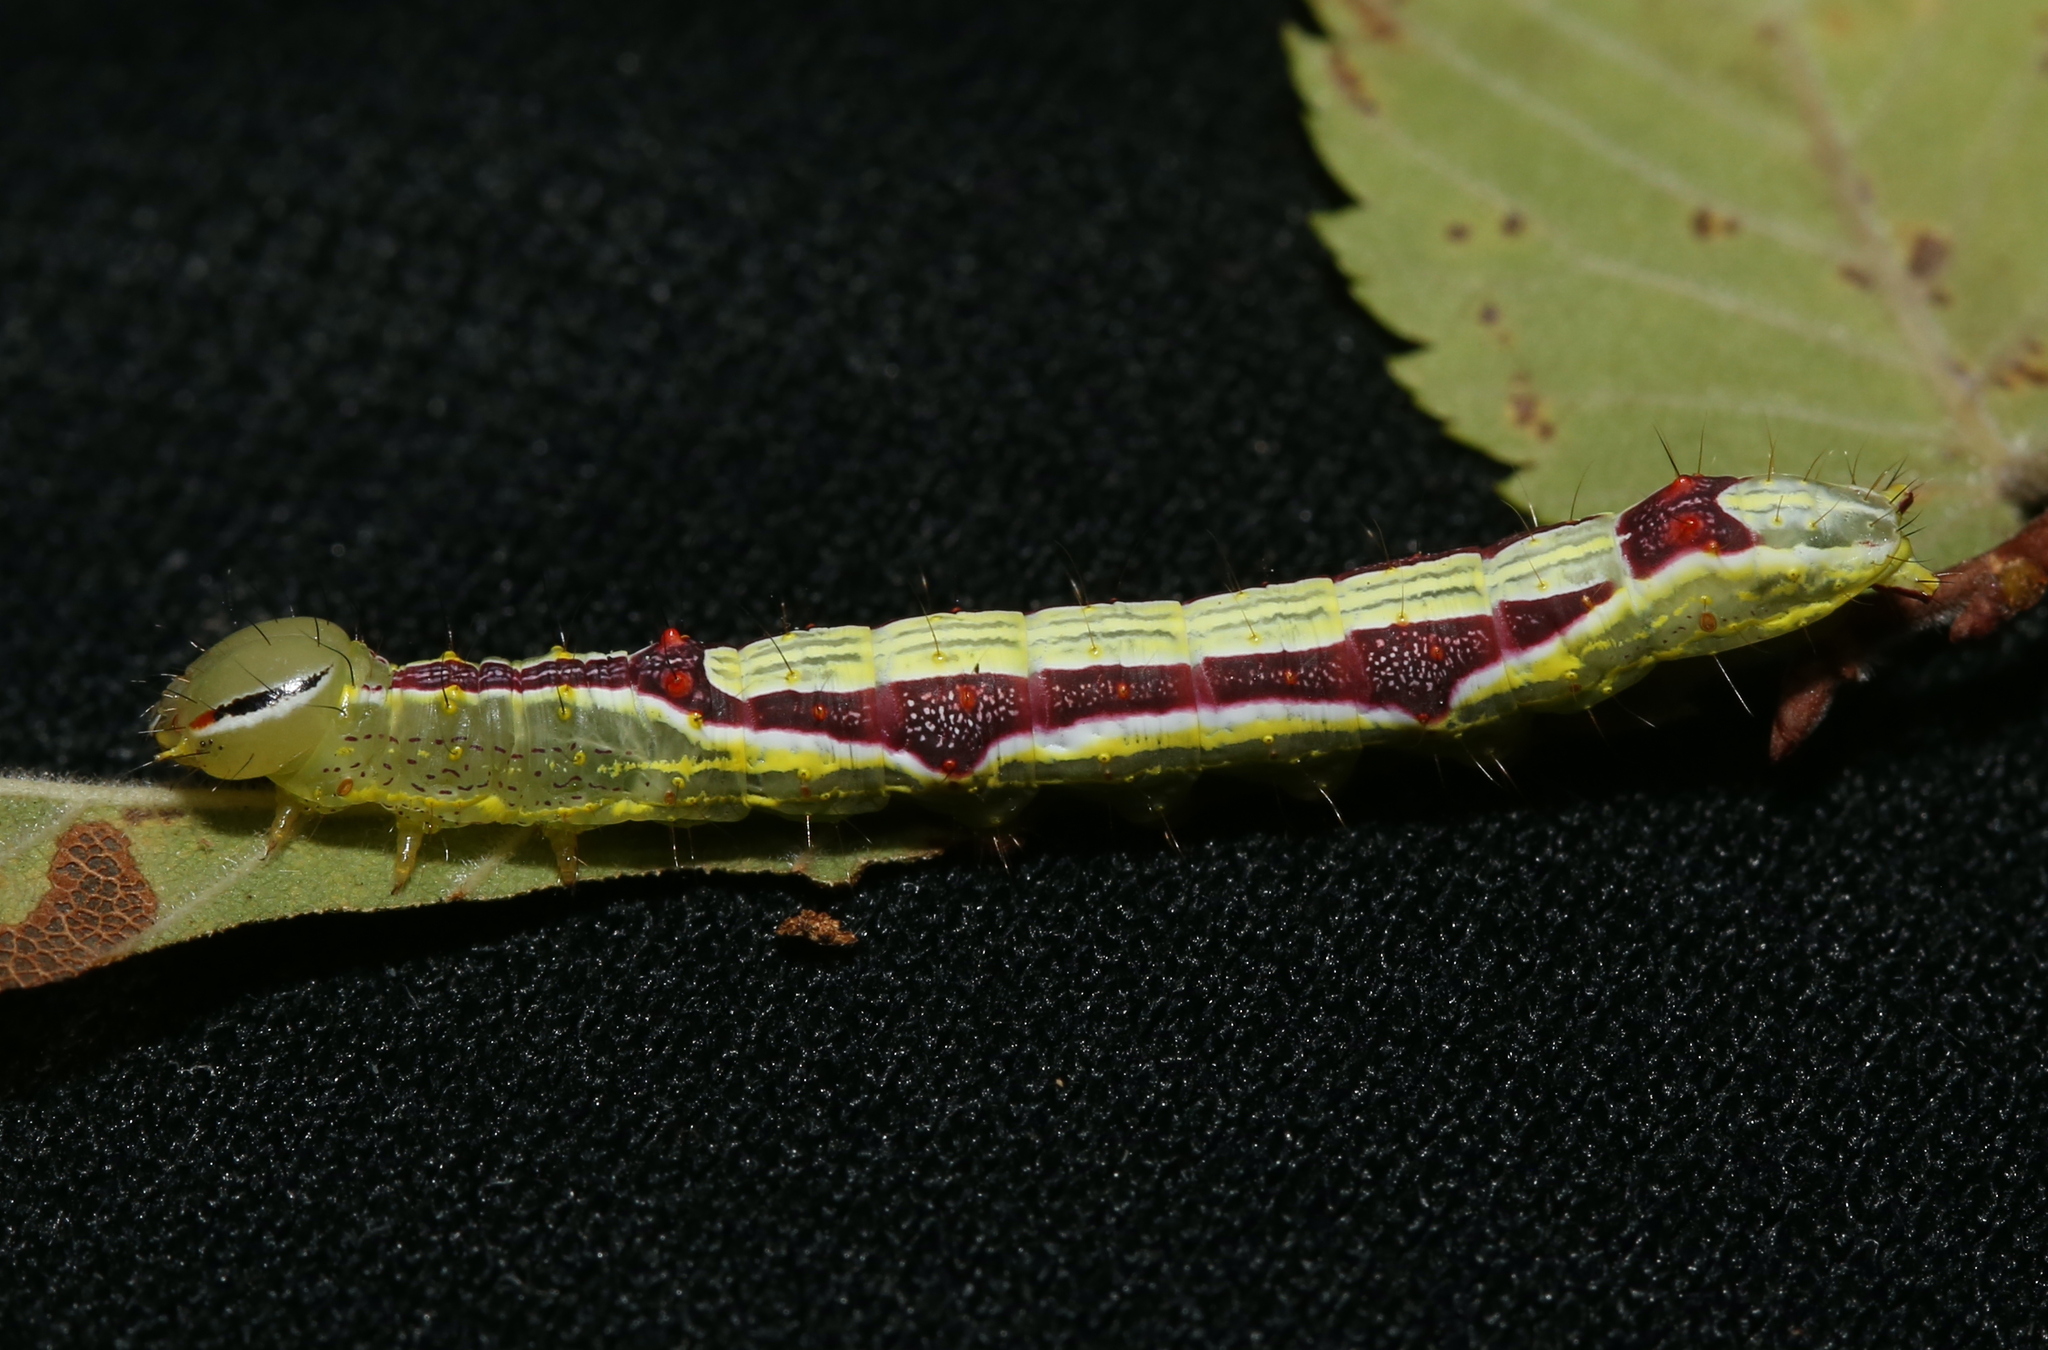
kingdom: Animalia
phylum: Arthropoda
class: Insecta
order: Lepidoptera
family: Notodontidae
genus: Lochmaeus
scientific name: Lochmaeus bilineata
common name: Double-lined prominent
